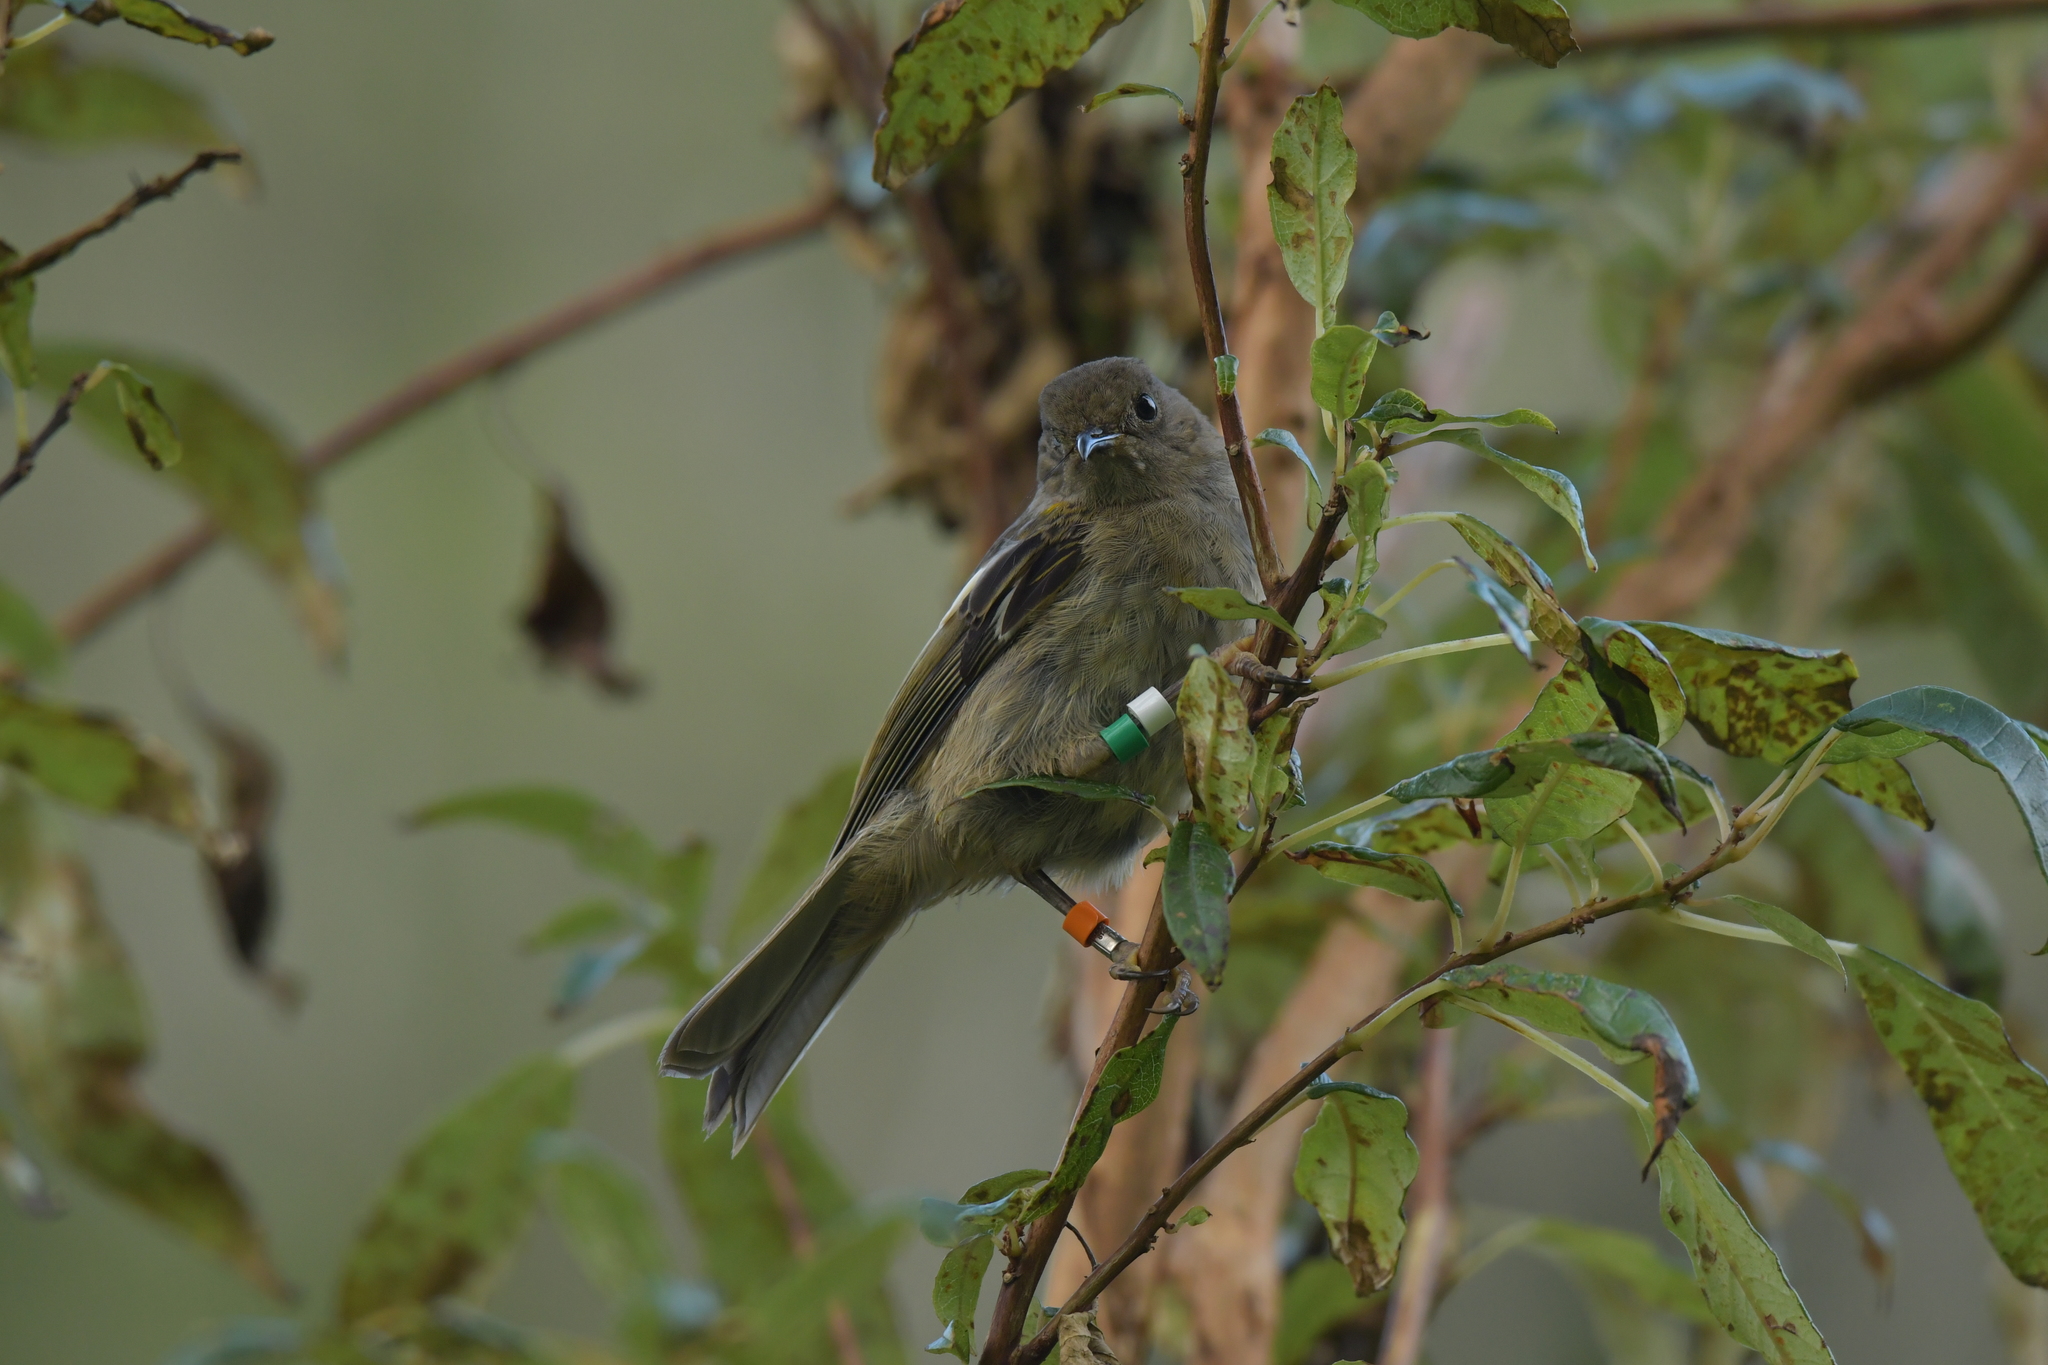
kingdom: Animalia
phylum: Chordata
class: Aves
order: Passeriformes
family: Notiomystidae
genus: Notiomystis
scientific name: Notiomystis cincta
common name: Stitchbird
